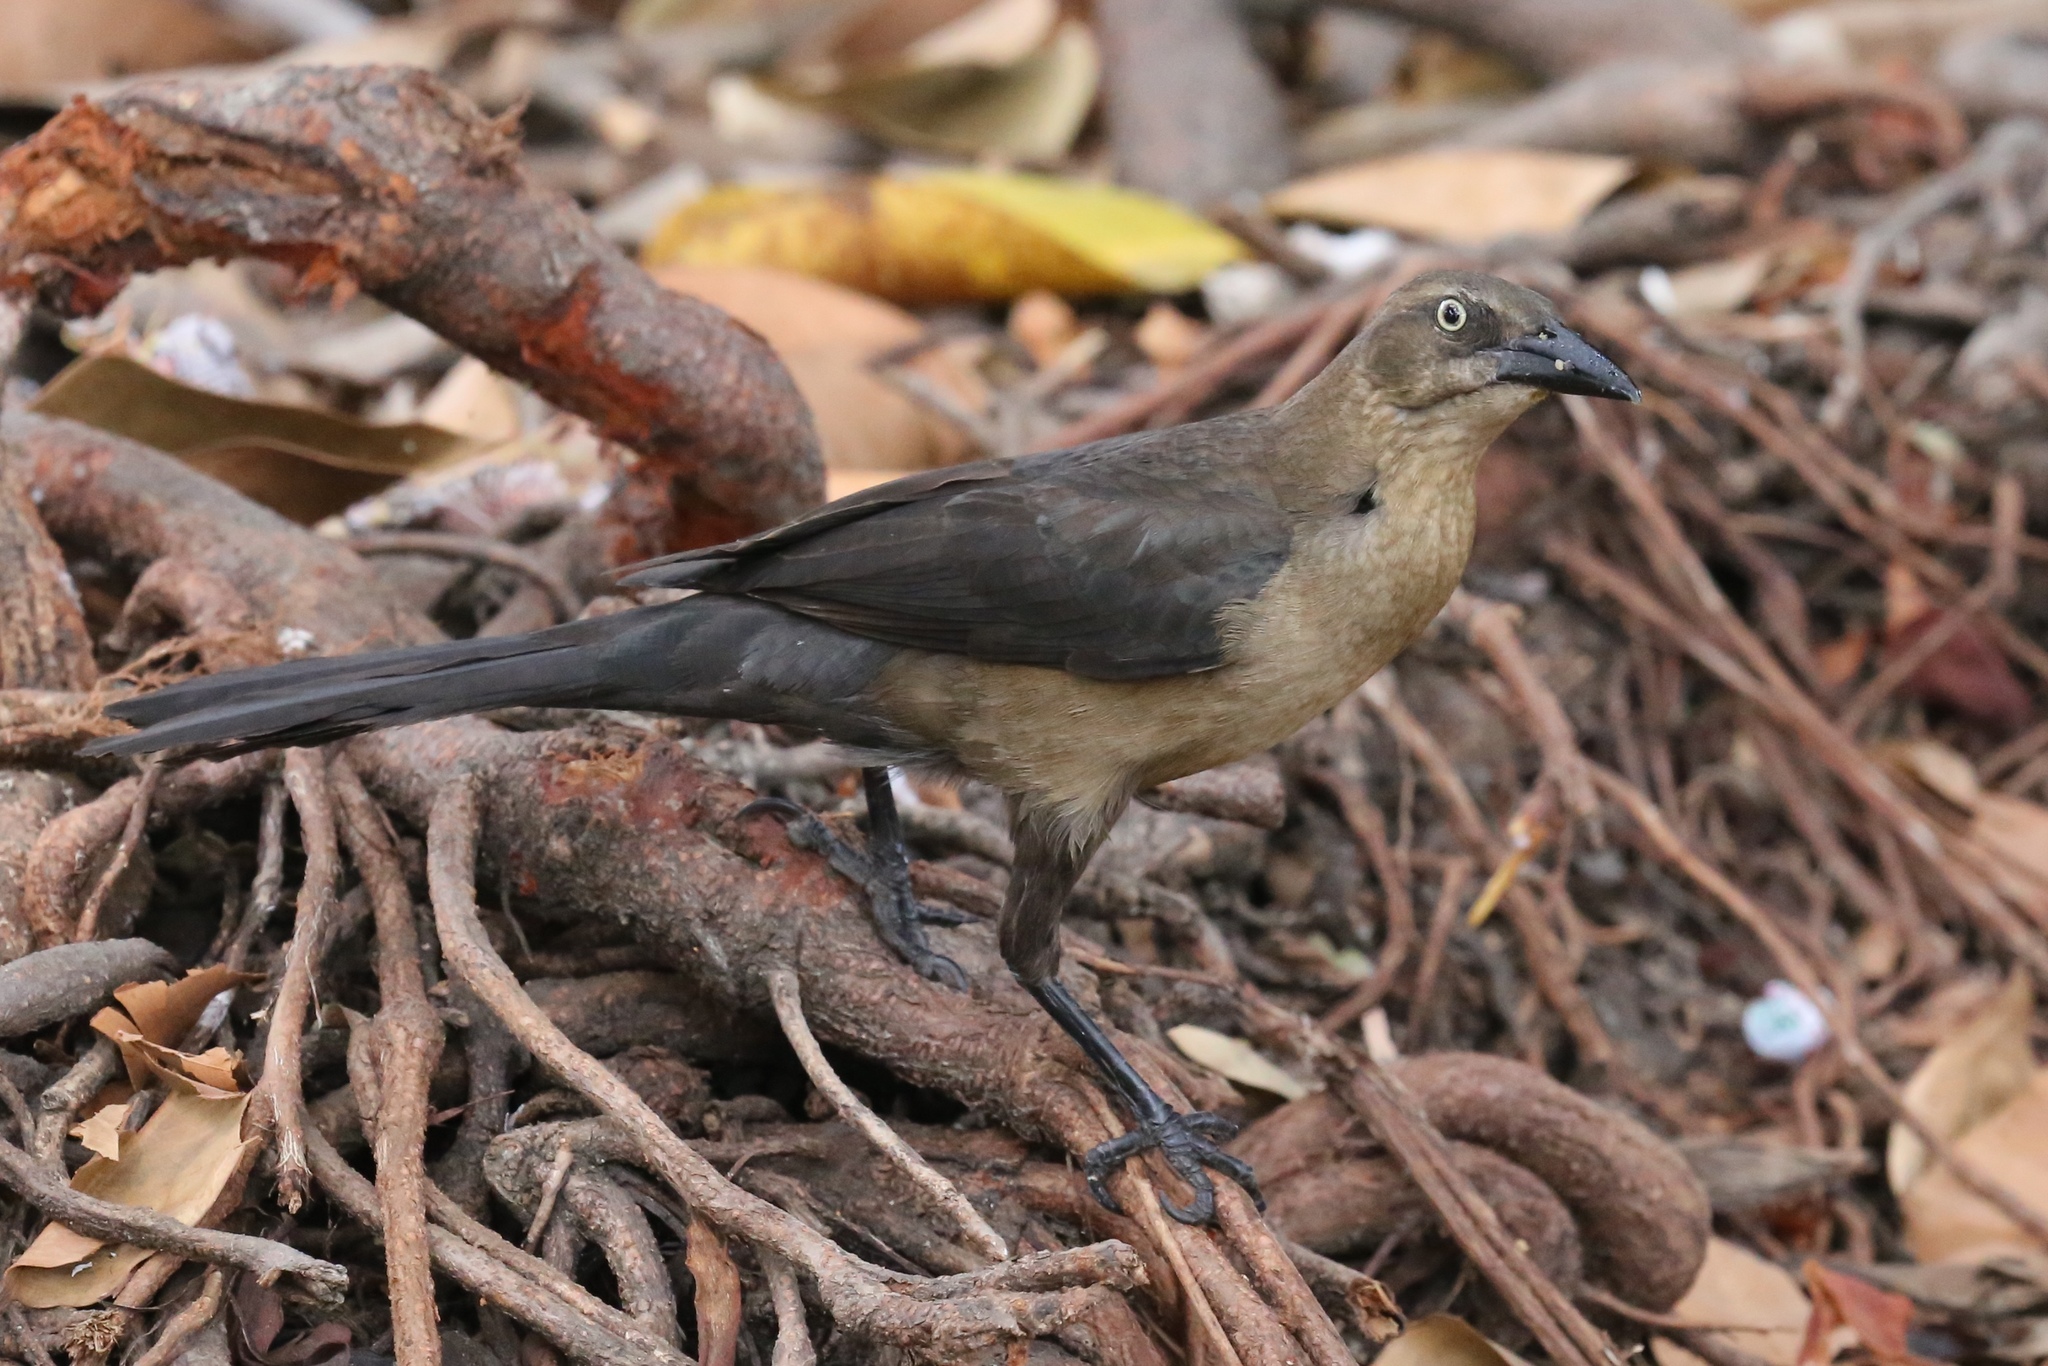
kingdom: Animalia
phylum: Chordata
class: Aves
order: Passeriformes
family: Icteridae
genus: Quiscalus
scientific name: Quiscalus mexicanus
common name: Great-tailed grackle
